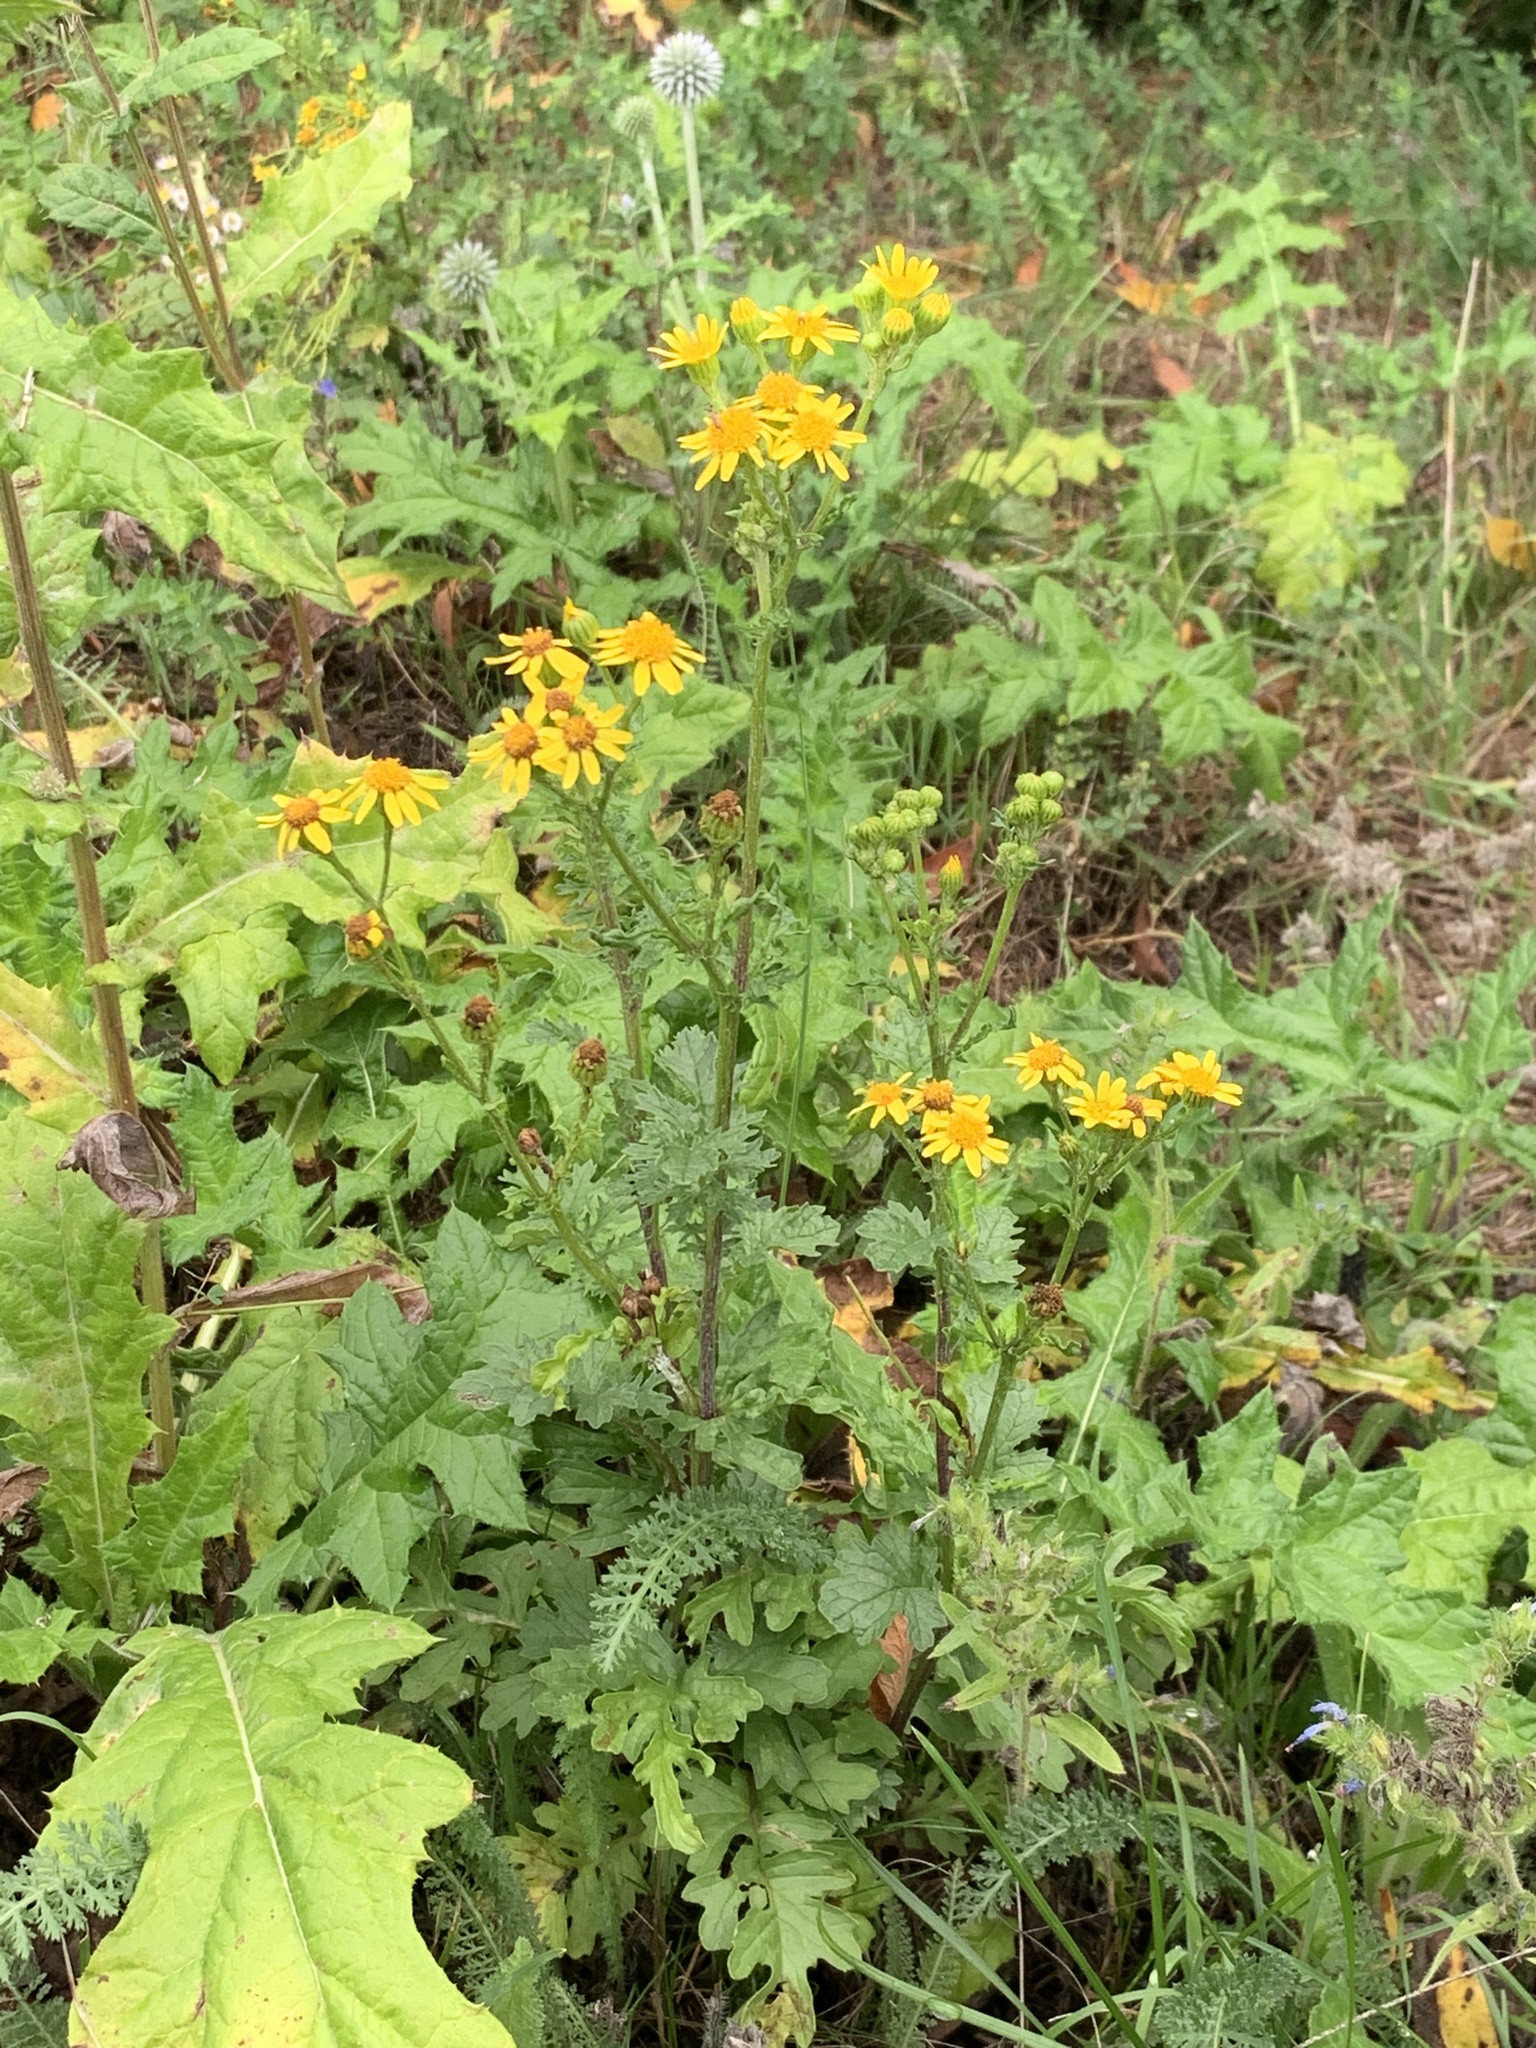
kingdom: Plantae
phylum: Tracheophyta
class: Magnoliopsida
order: Asterales
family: Asteraceae
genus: Jacobaea
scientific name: Jacobaea vulgaris
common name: Stinking willie
